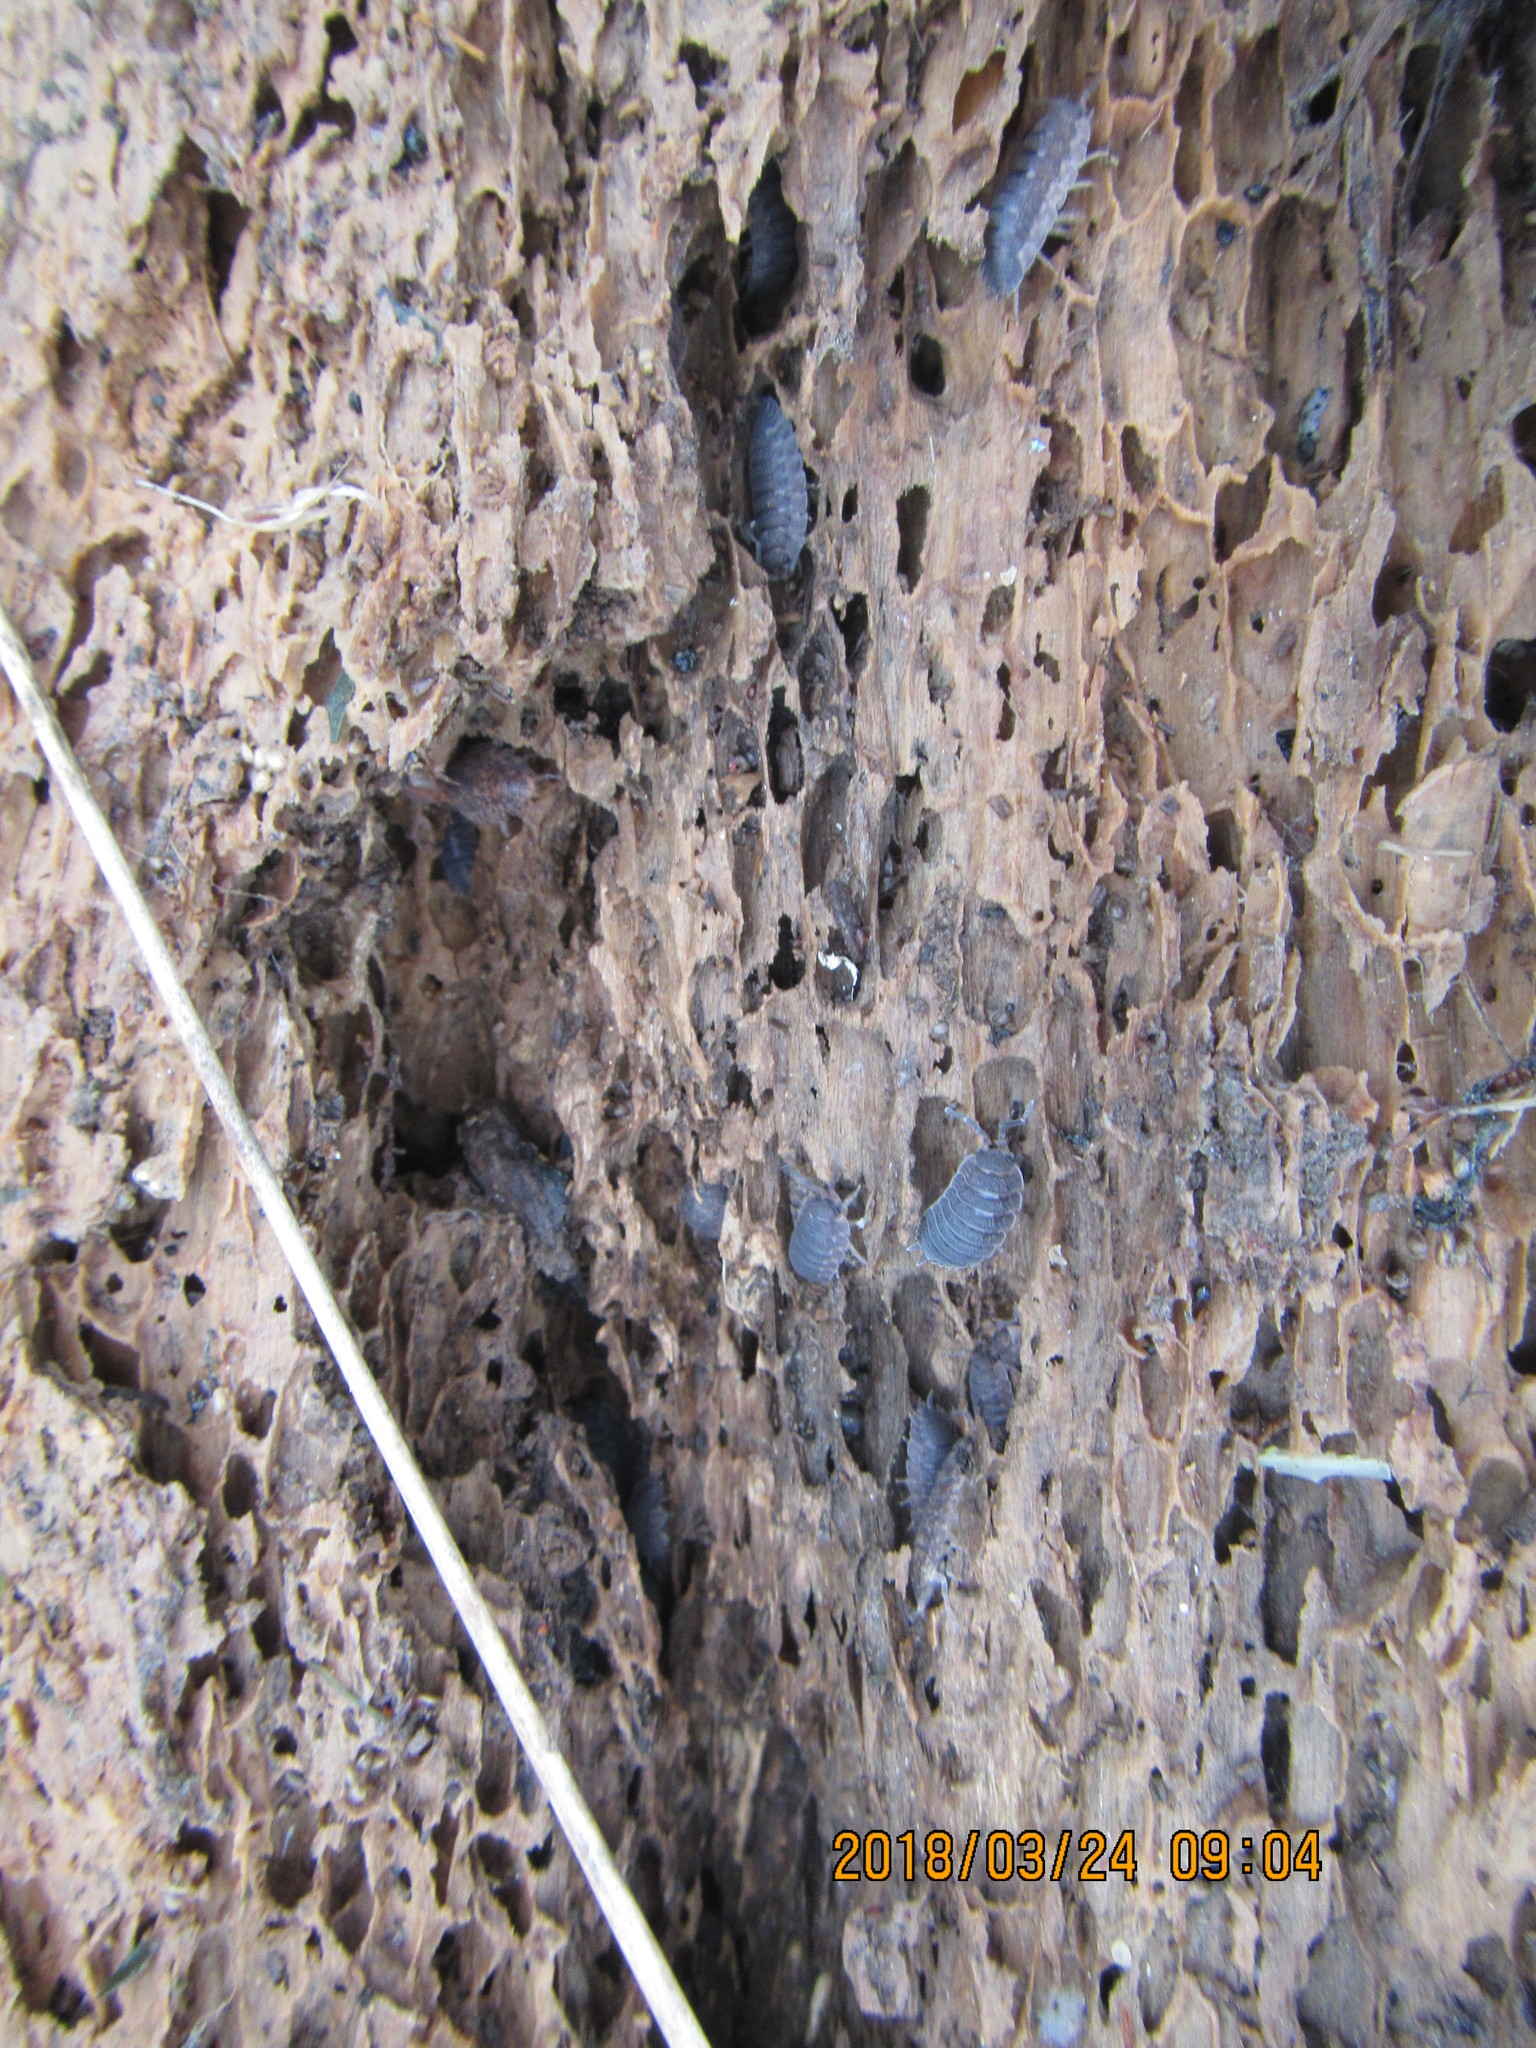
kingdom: Animalia
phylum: Arthropoda
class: Malacostraca
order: Isopoda
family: Porcellionidae
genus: Porcellio
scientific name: Porcellio scaber
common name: Common rough woodlouse
